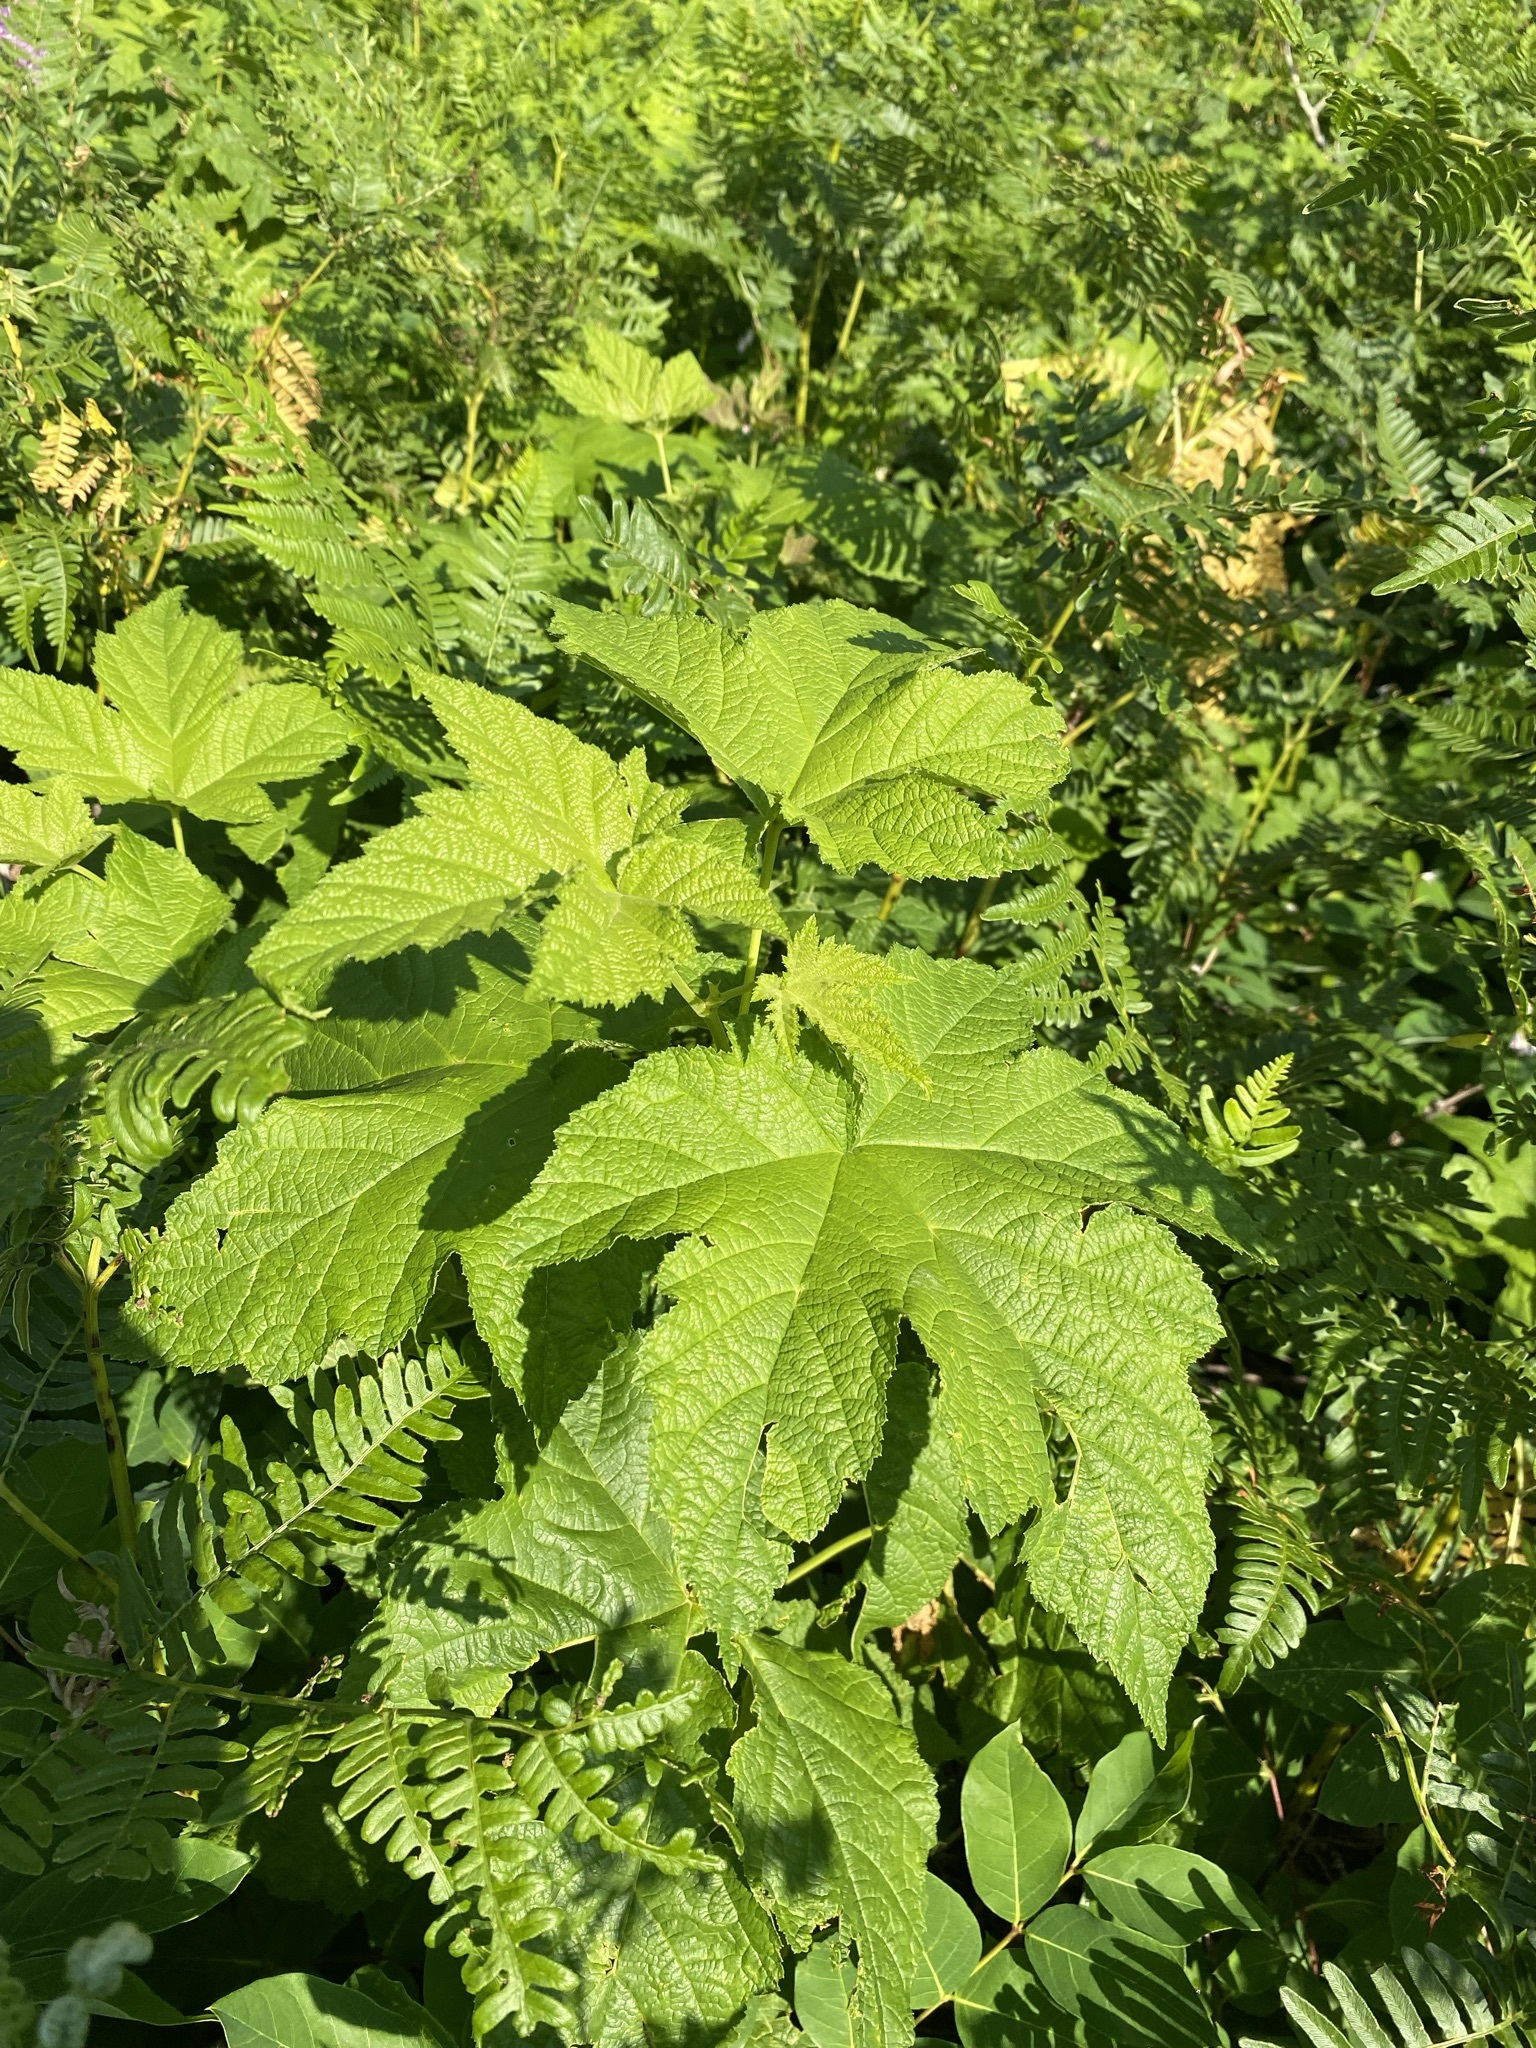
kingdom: Plantae
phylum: Tracheophyta
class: Magnoliopsida
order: Rosales
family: Rosaceae
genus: Rubus
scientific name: Rubus parviflorus
